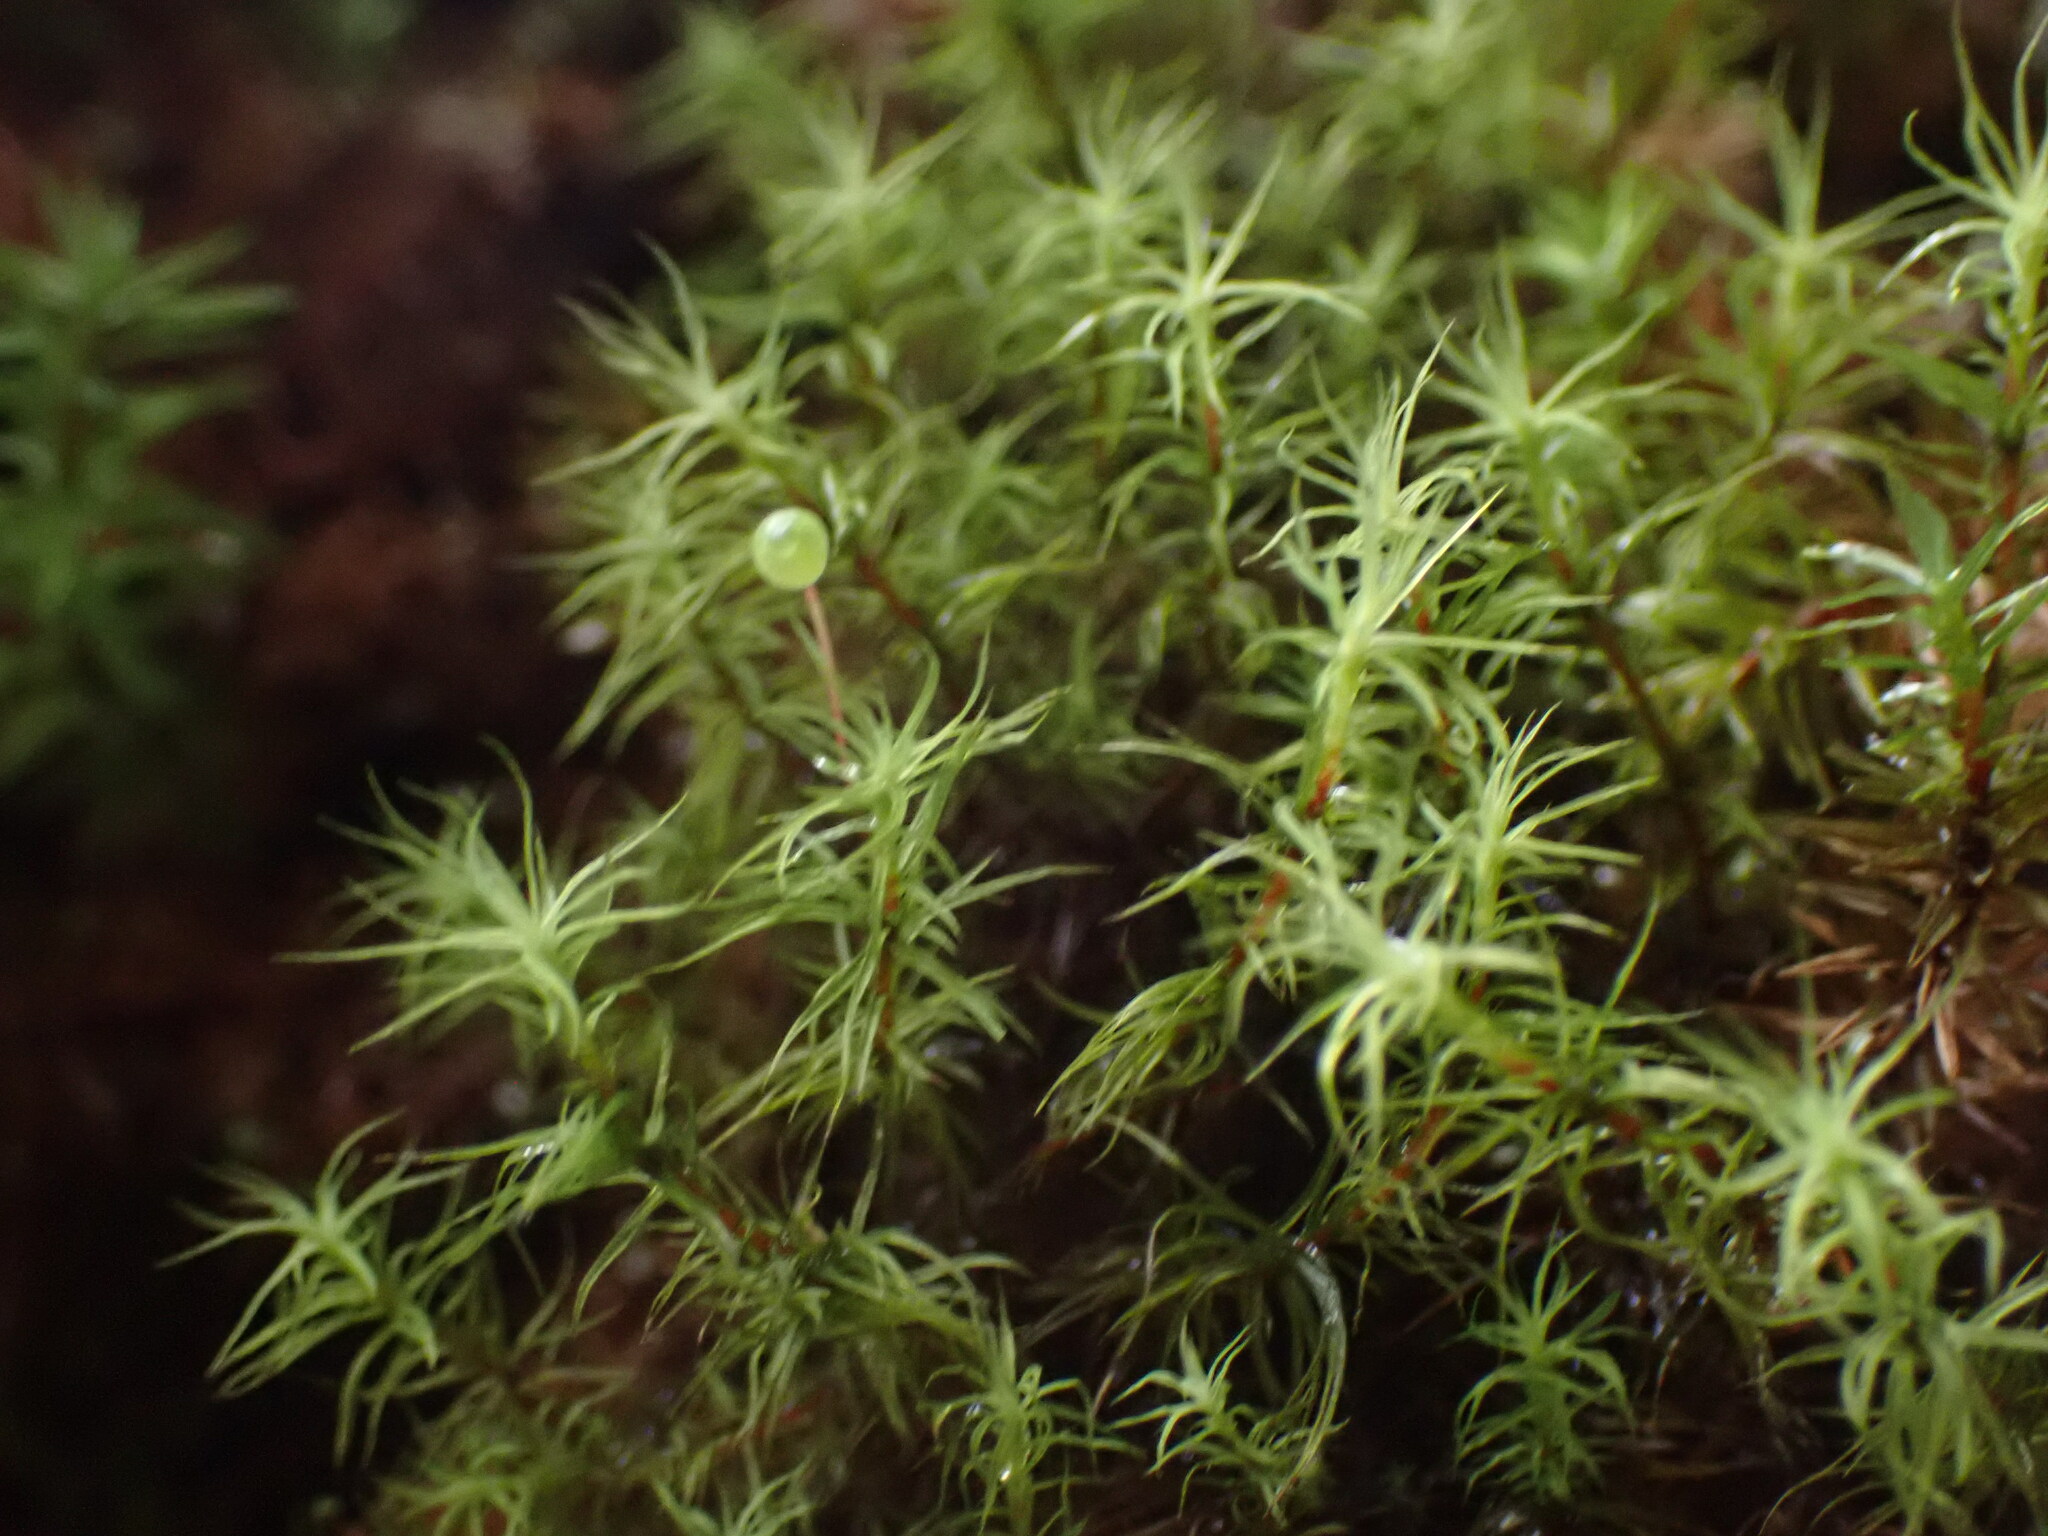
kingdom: Plantae
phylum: Bryophyta
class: Bryopsida
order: Bartramiales
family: Bartramiaceae
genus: Bartramia
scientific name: Bartramia ithyphylla
